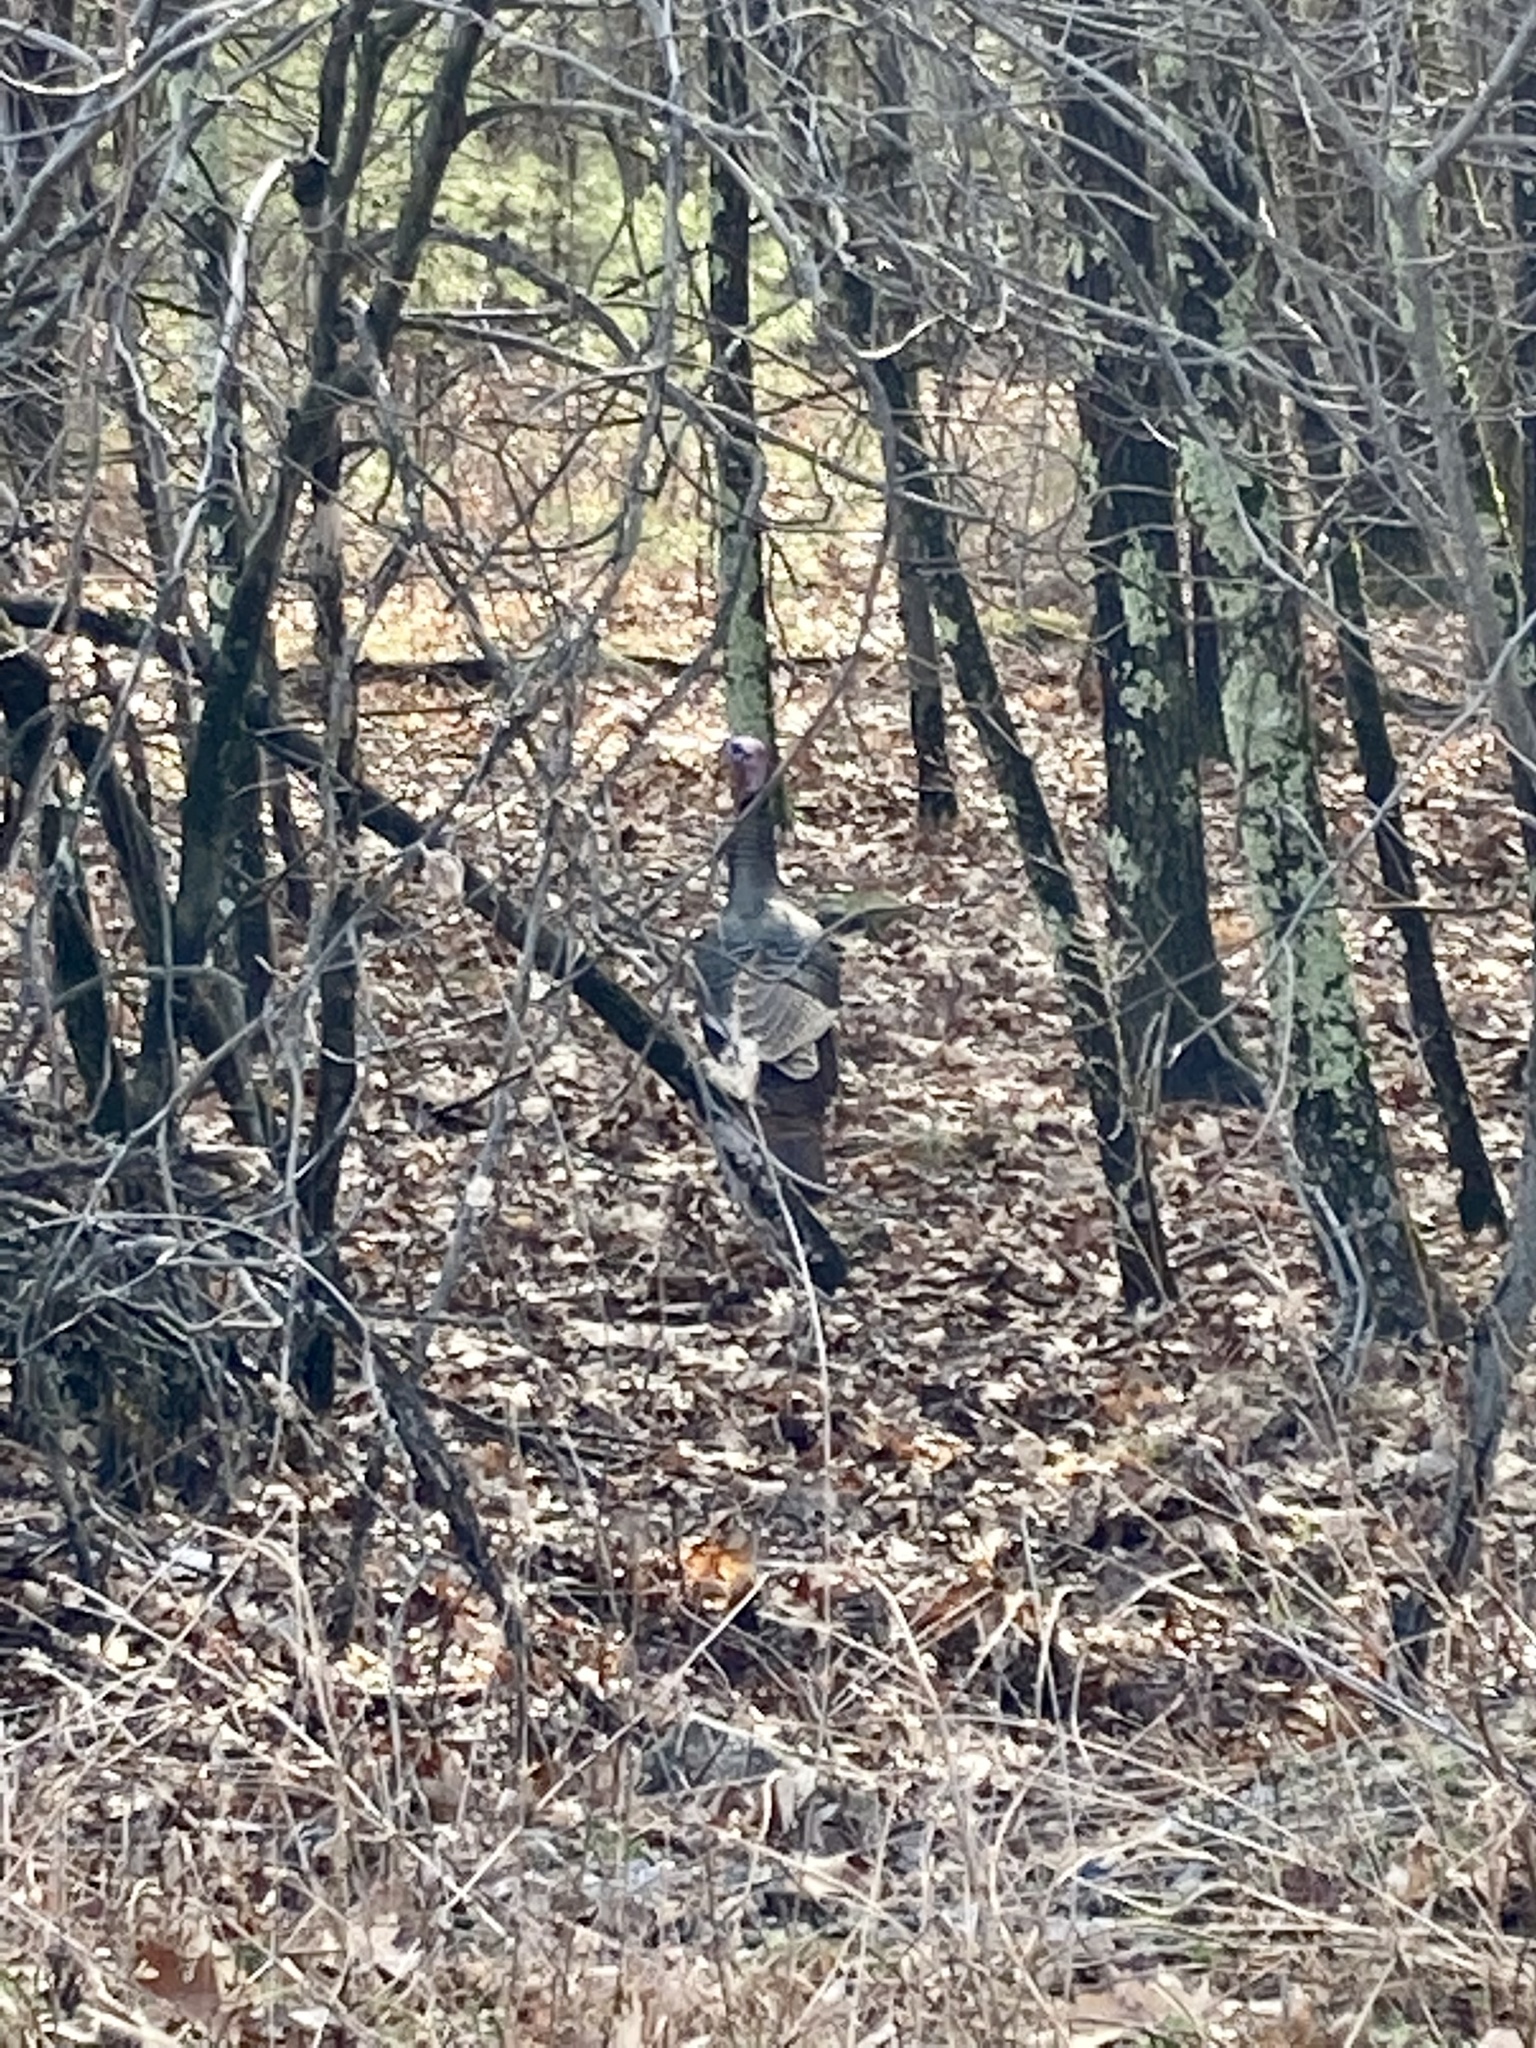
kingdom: Animalia
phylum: Chordata
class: Aves
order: Galliformes
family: Phasianidae
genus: Meleagris
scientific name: Meleagris gallopavo
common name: Wild turkey
